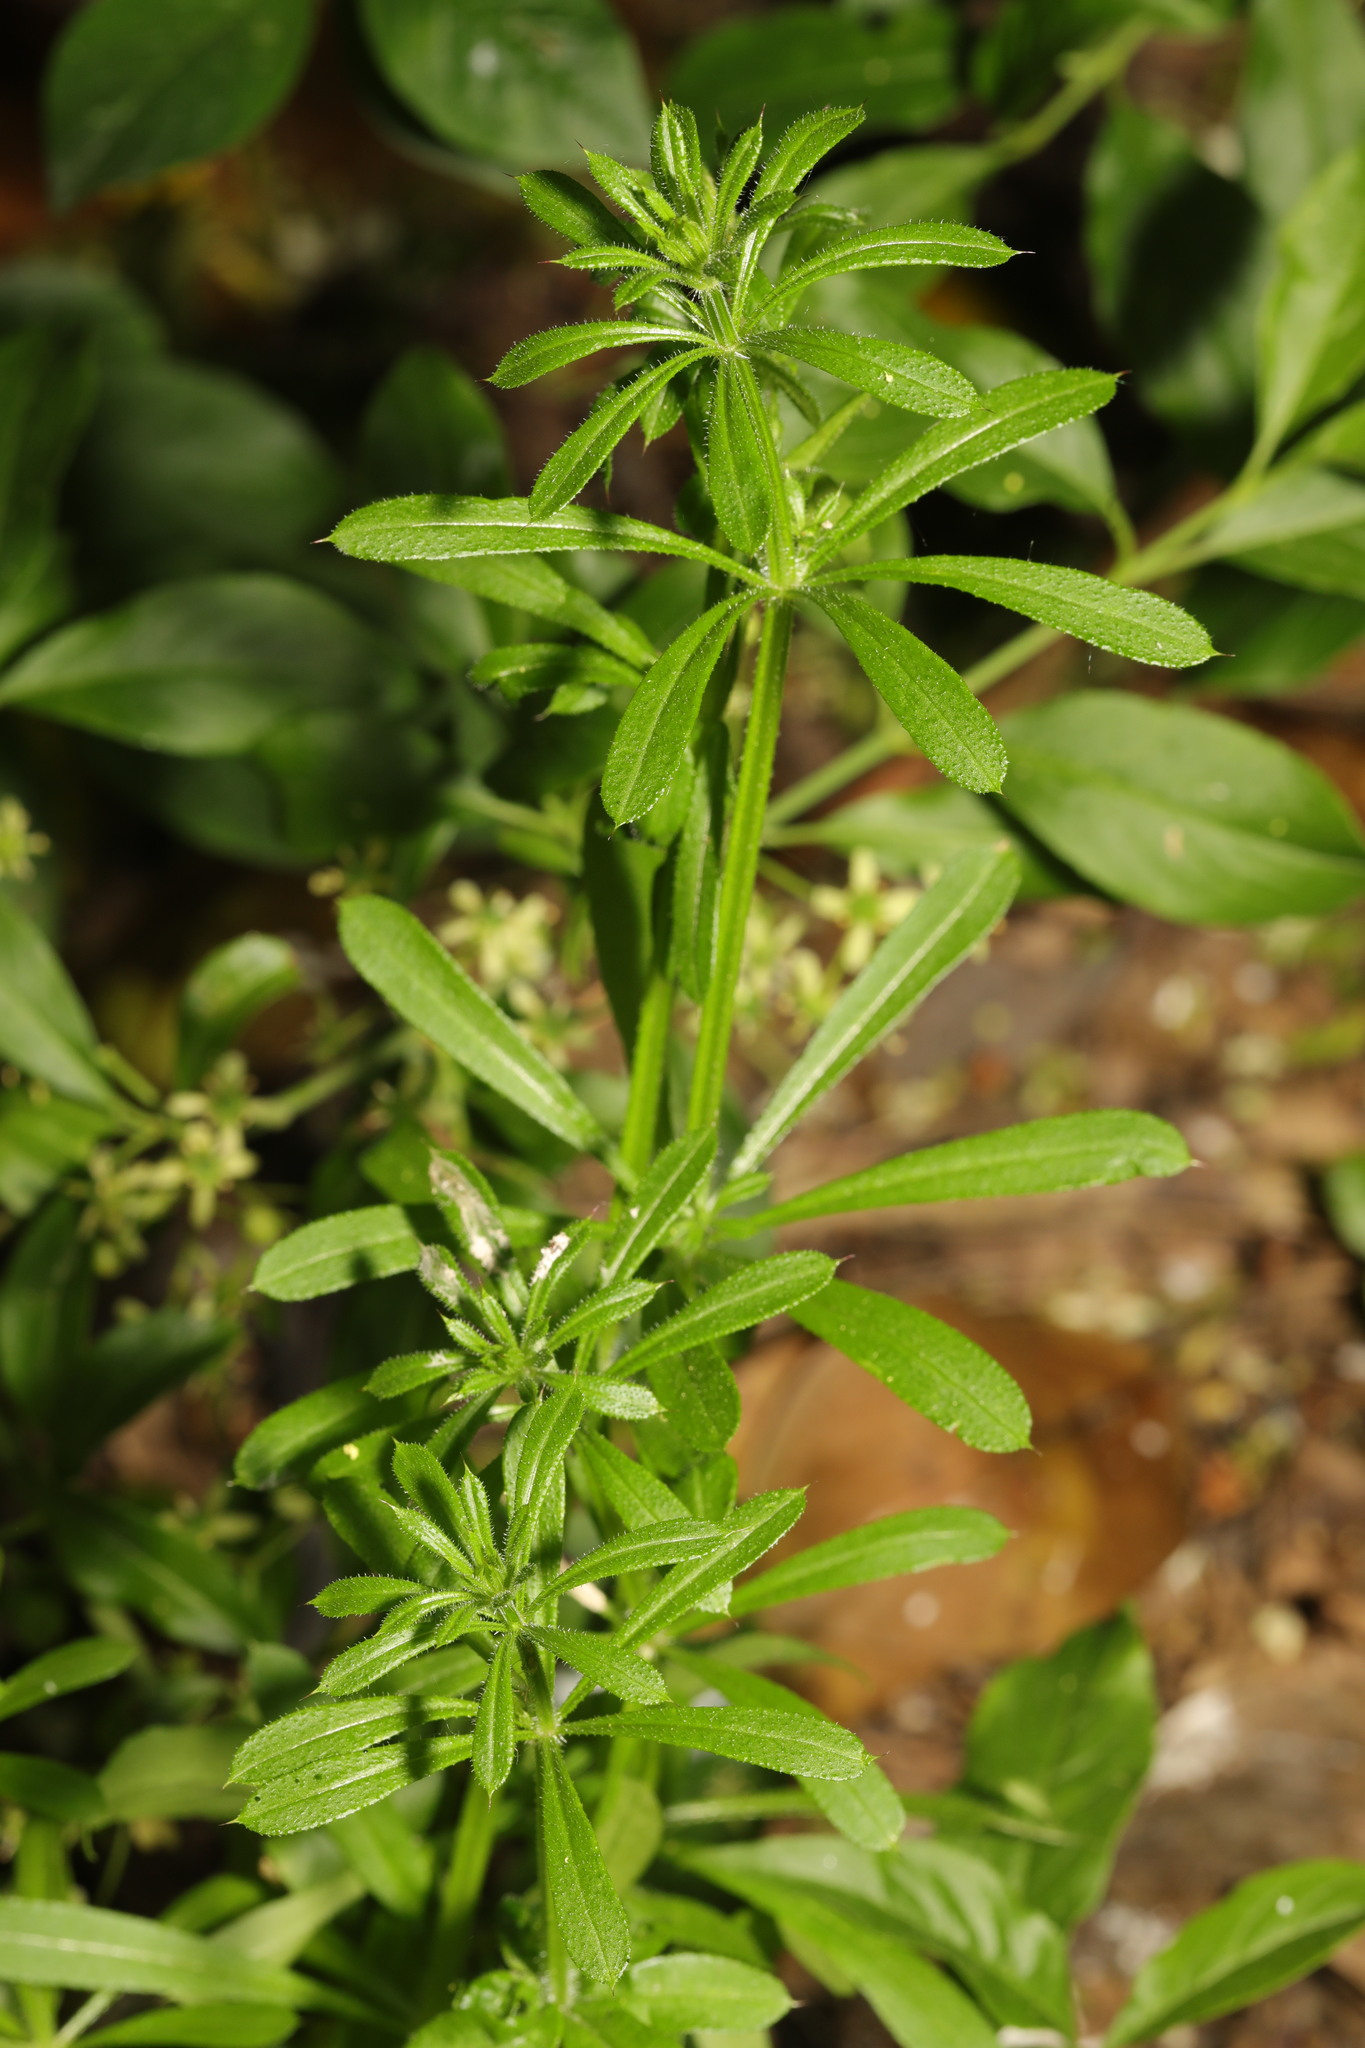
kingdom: Plantae
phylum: Tracheophyta
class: Magnoliopsida
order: Gentianales
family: Rubiaceae
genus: Galium
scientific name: Galium aparine
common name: Cleavers
